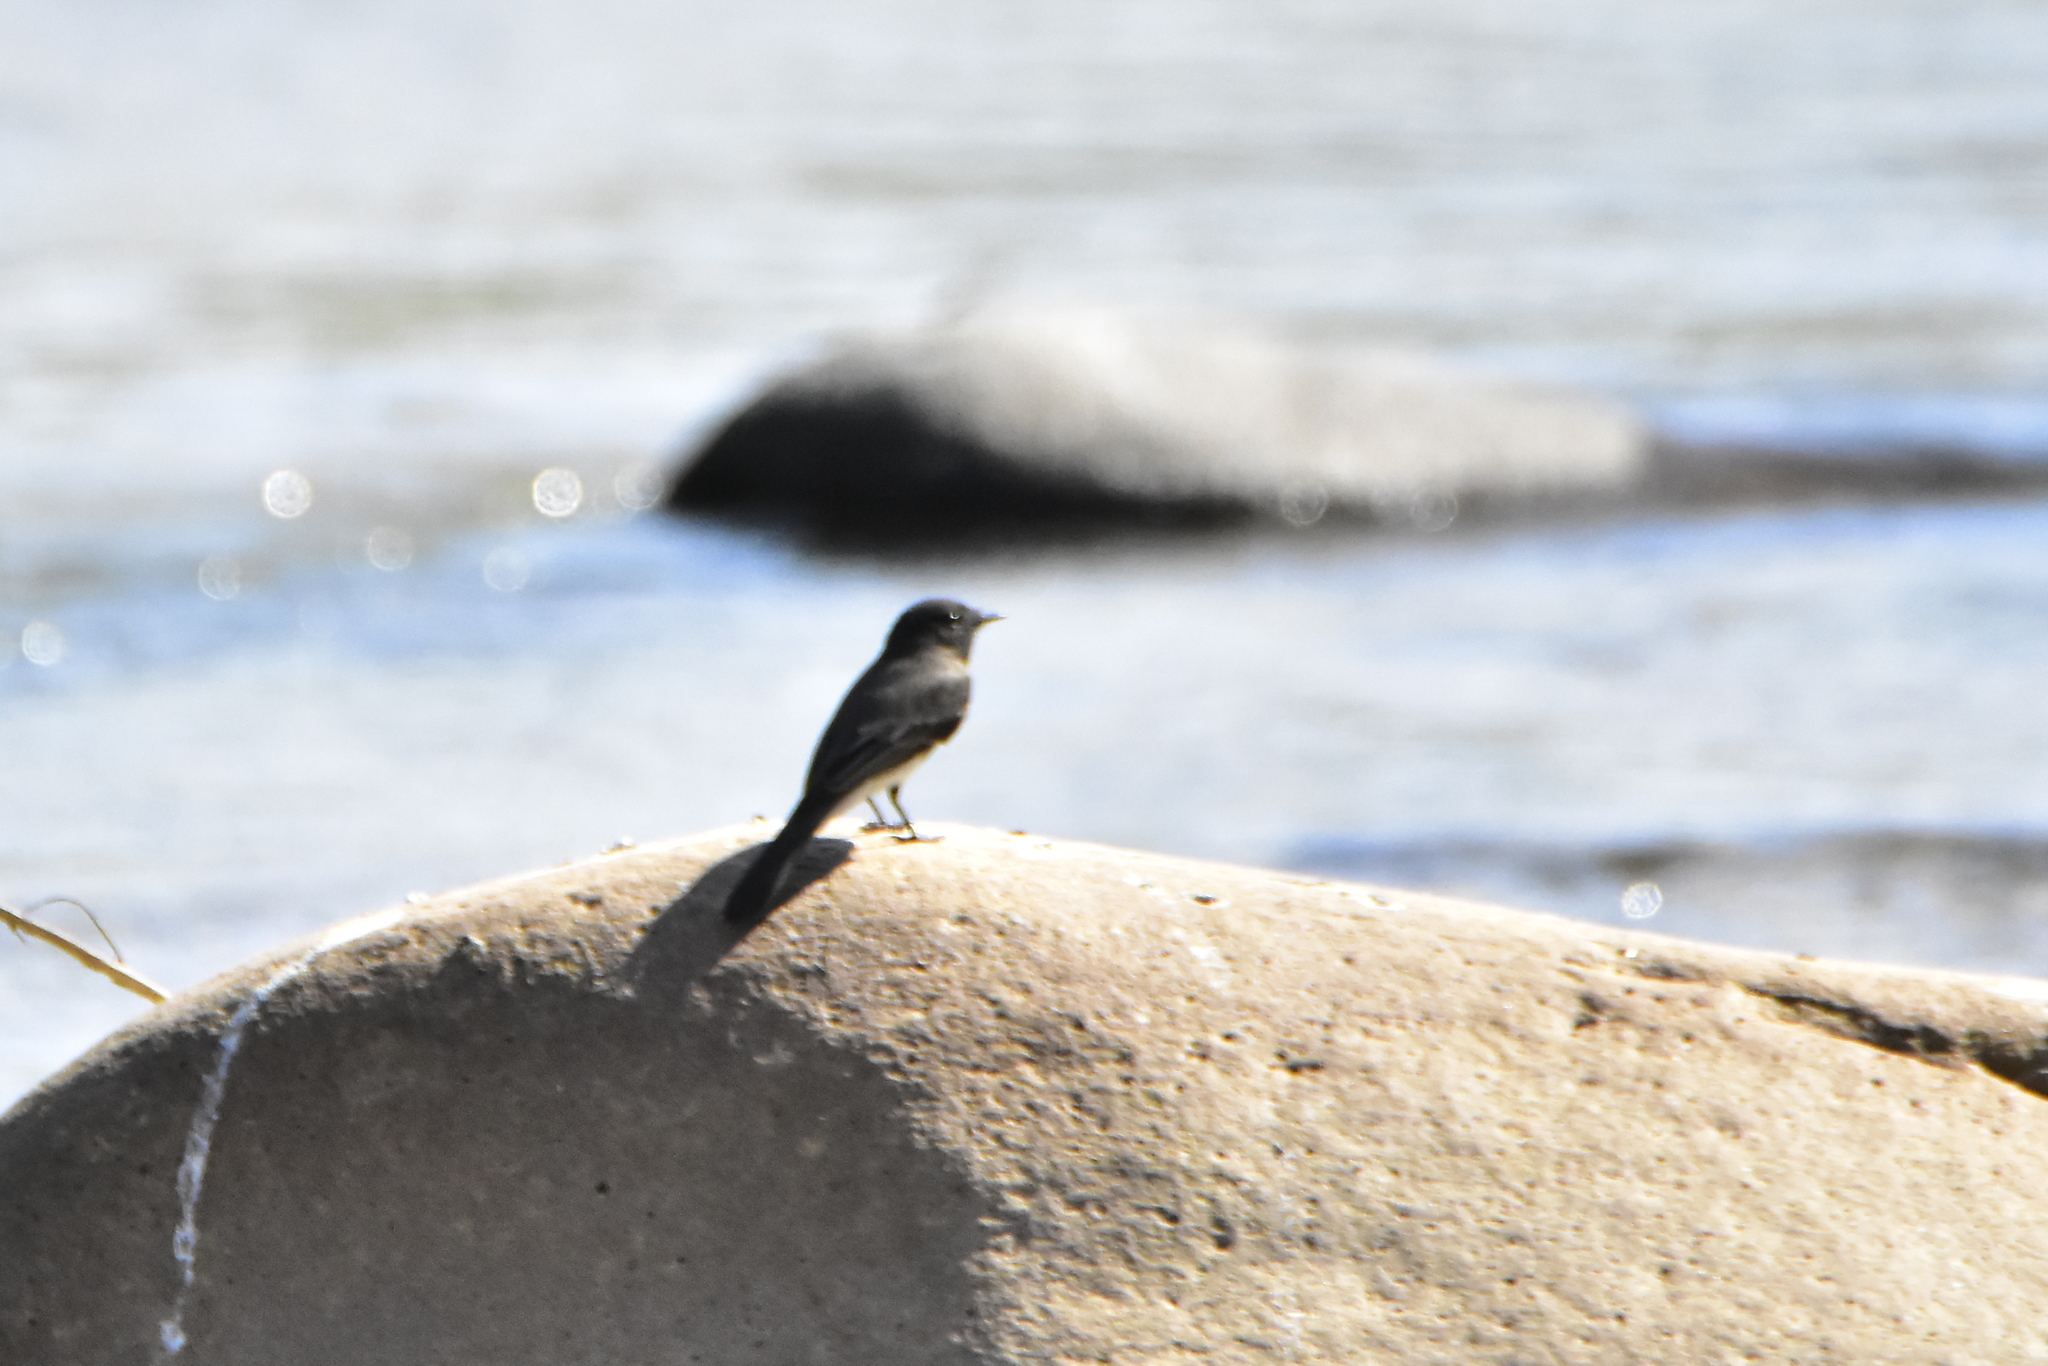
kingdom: Animalia
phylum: Chordata
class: Aves
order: Passeriformes
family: Tyrannidae
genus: Sayornis
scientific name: Sayornis nigricans
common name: Black phoebe
